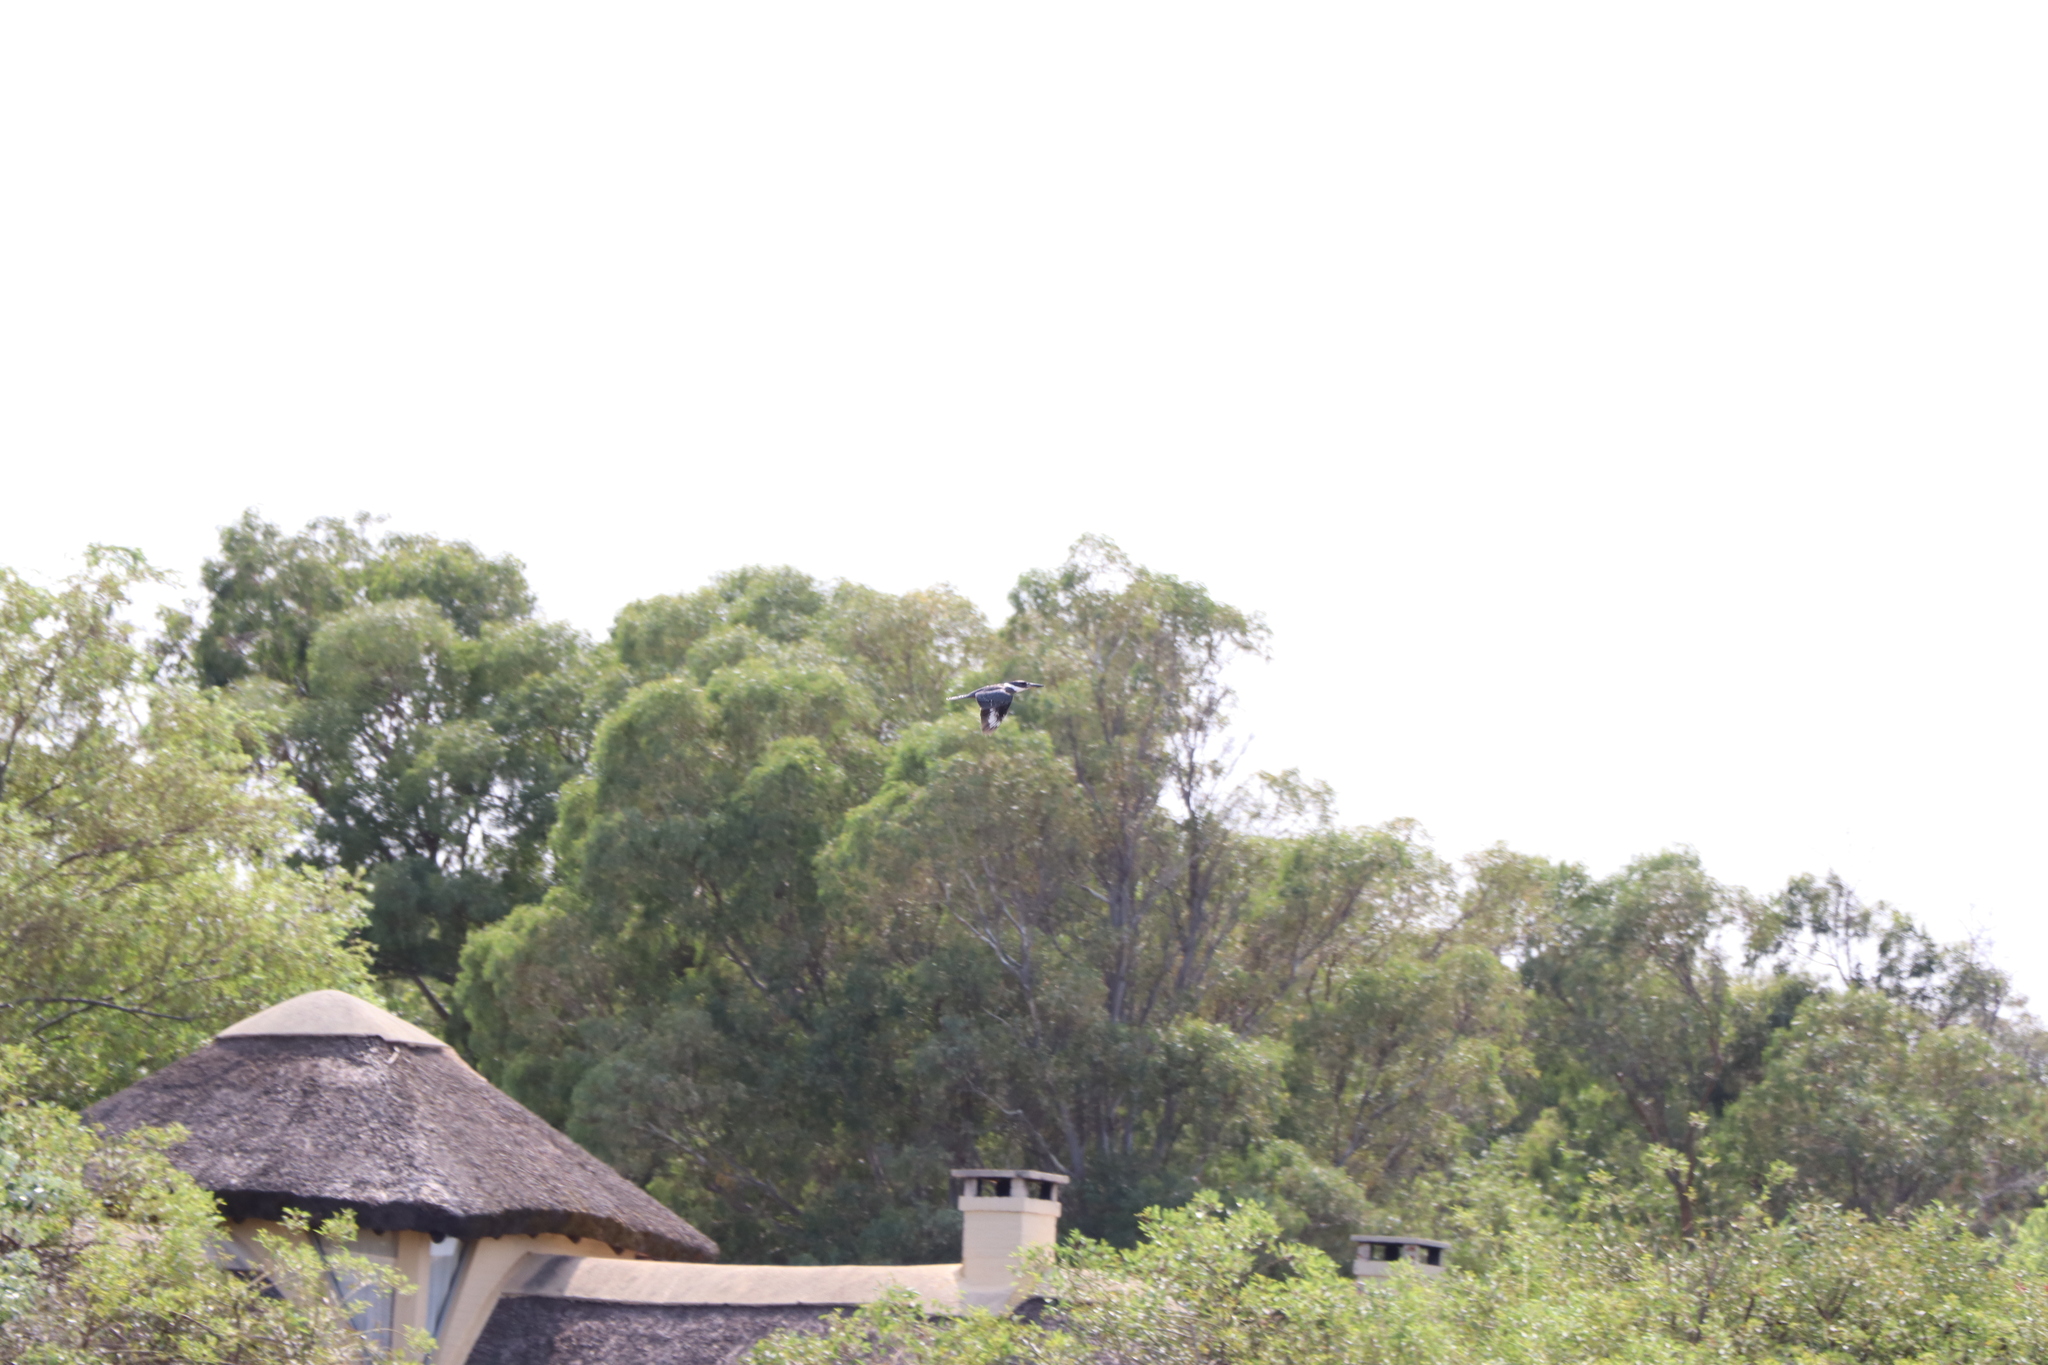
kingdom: Animalia
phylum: Chordata
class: Aves
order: Coraciiformes
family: Alcedinidae
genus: Megaceryle
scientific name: Megaceryle torquata
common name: Ringed kingfisher
